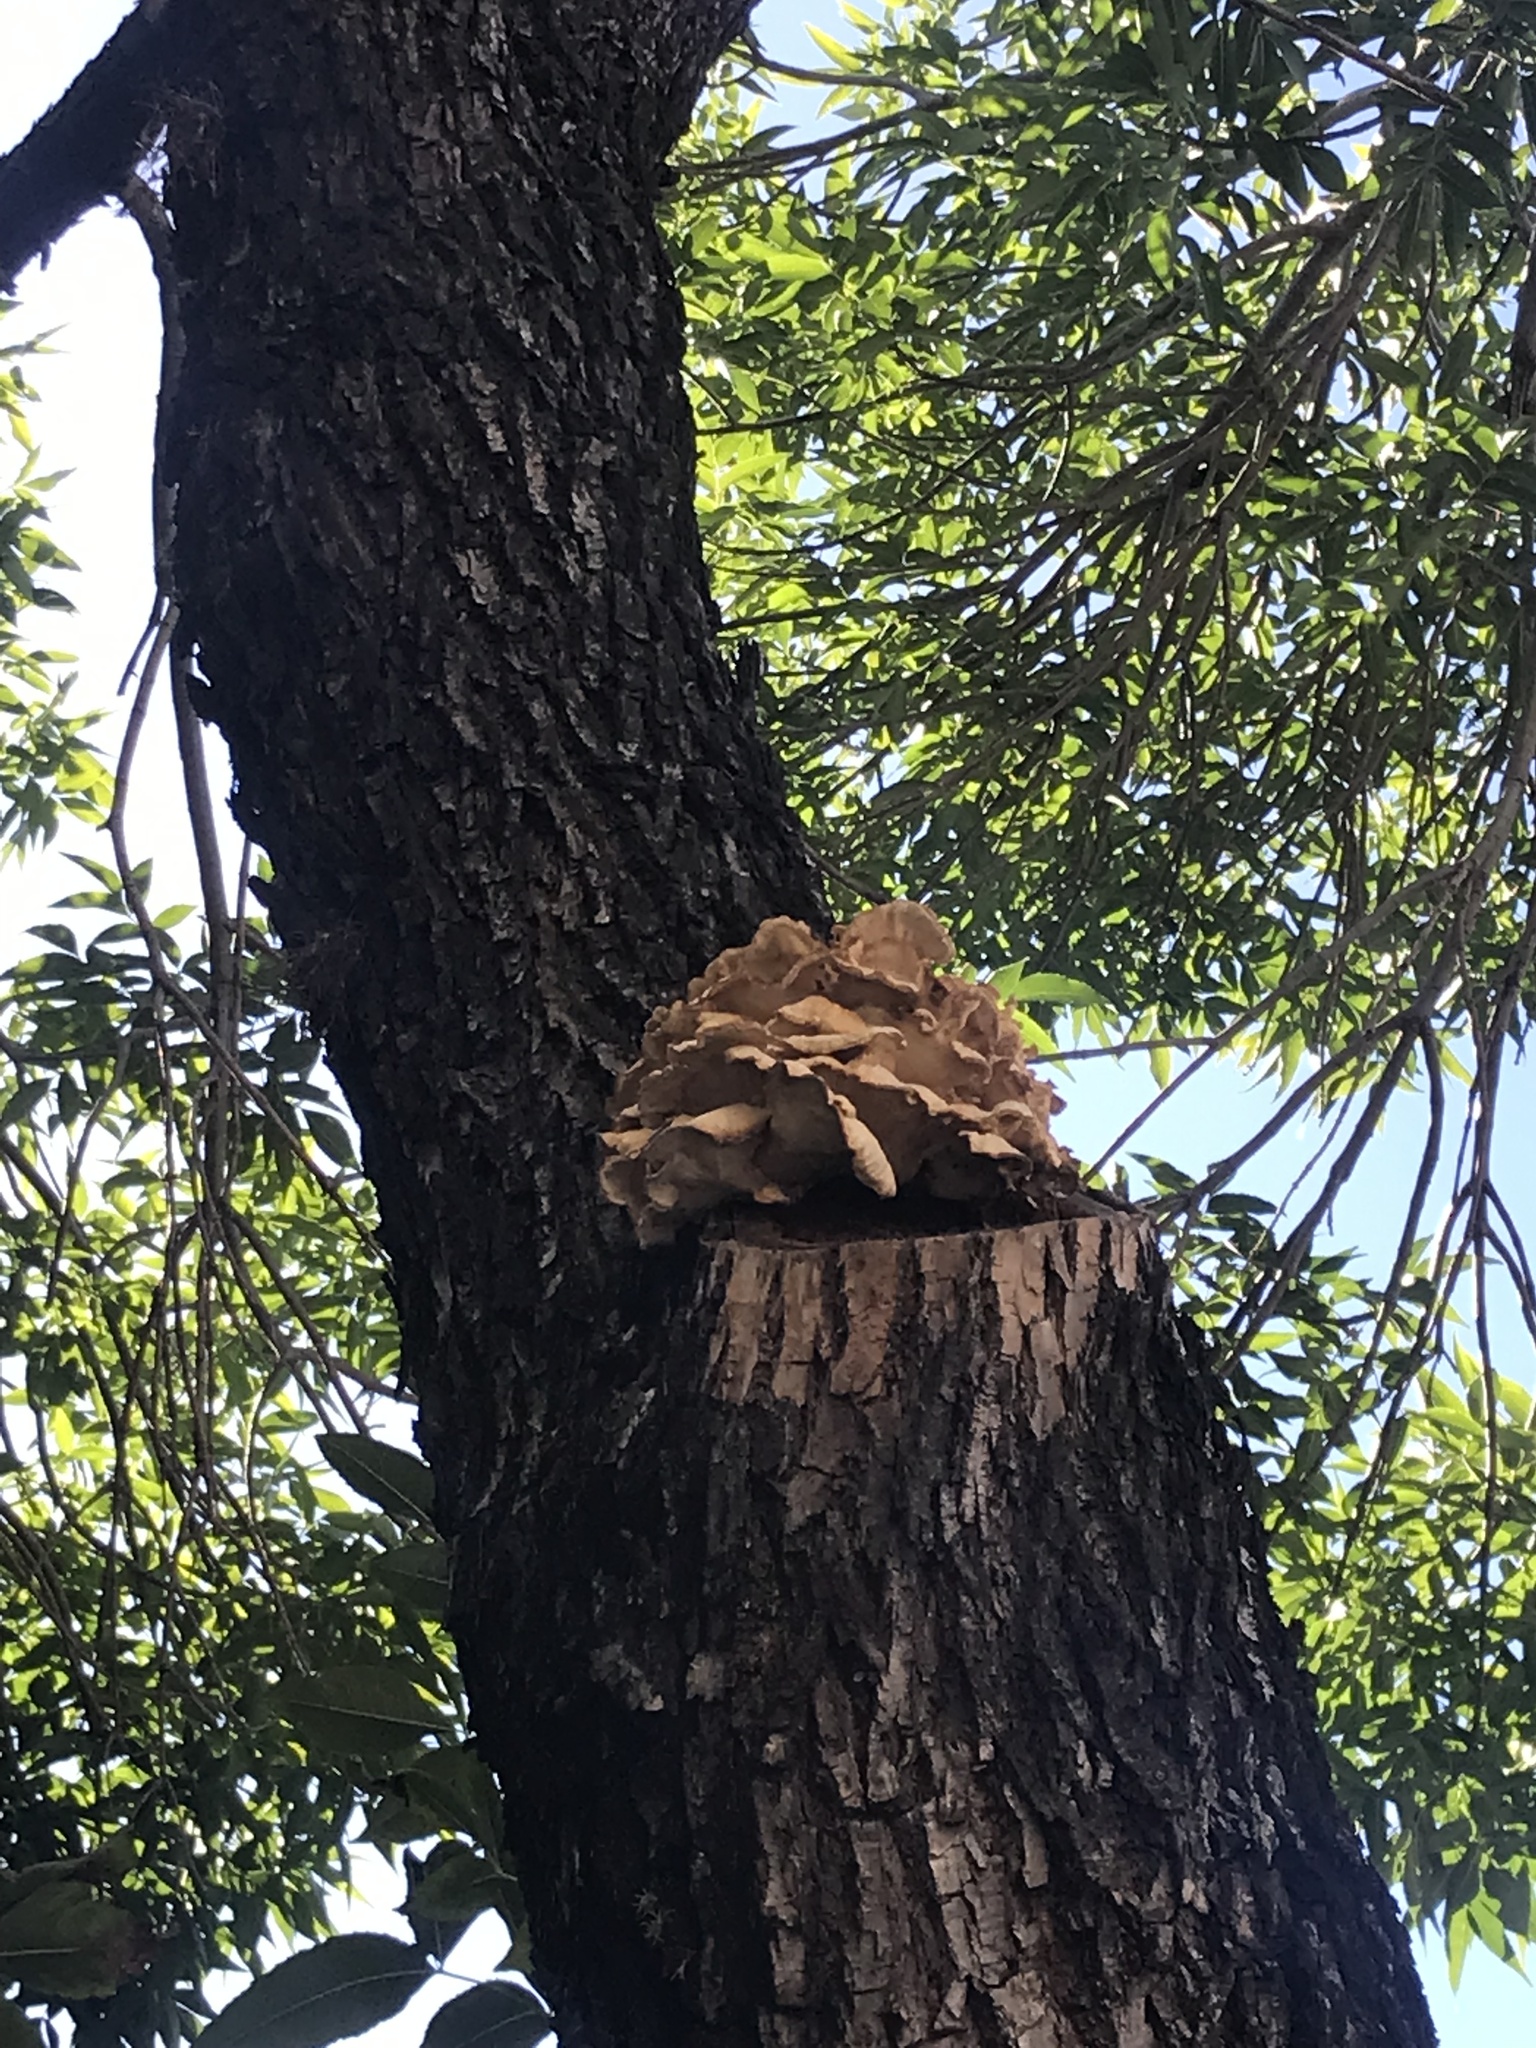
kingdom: Fungi
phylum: Basidiomycota
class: Agaricomycetes
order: Polyporales
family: Laetiporaceae
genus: Laetiporus
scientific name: Laetiporus sulphureus
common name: Chicken of the woods
